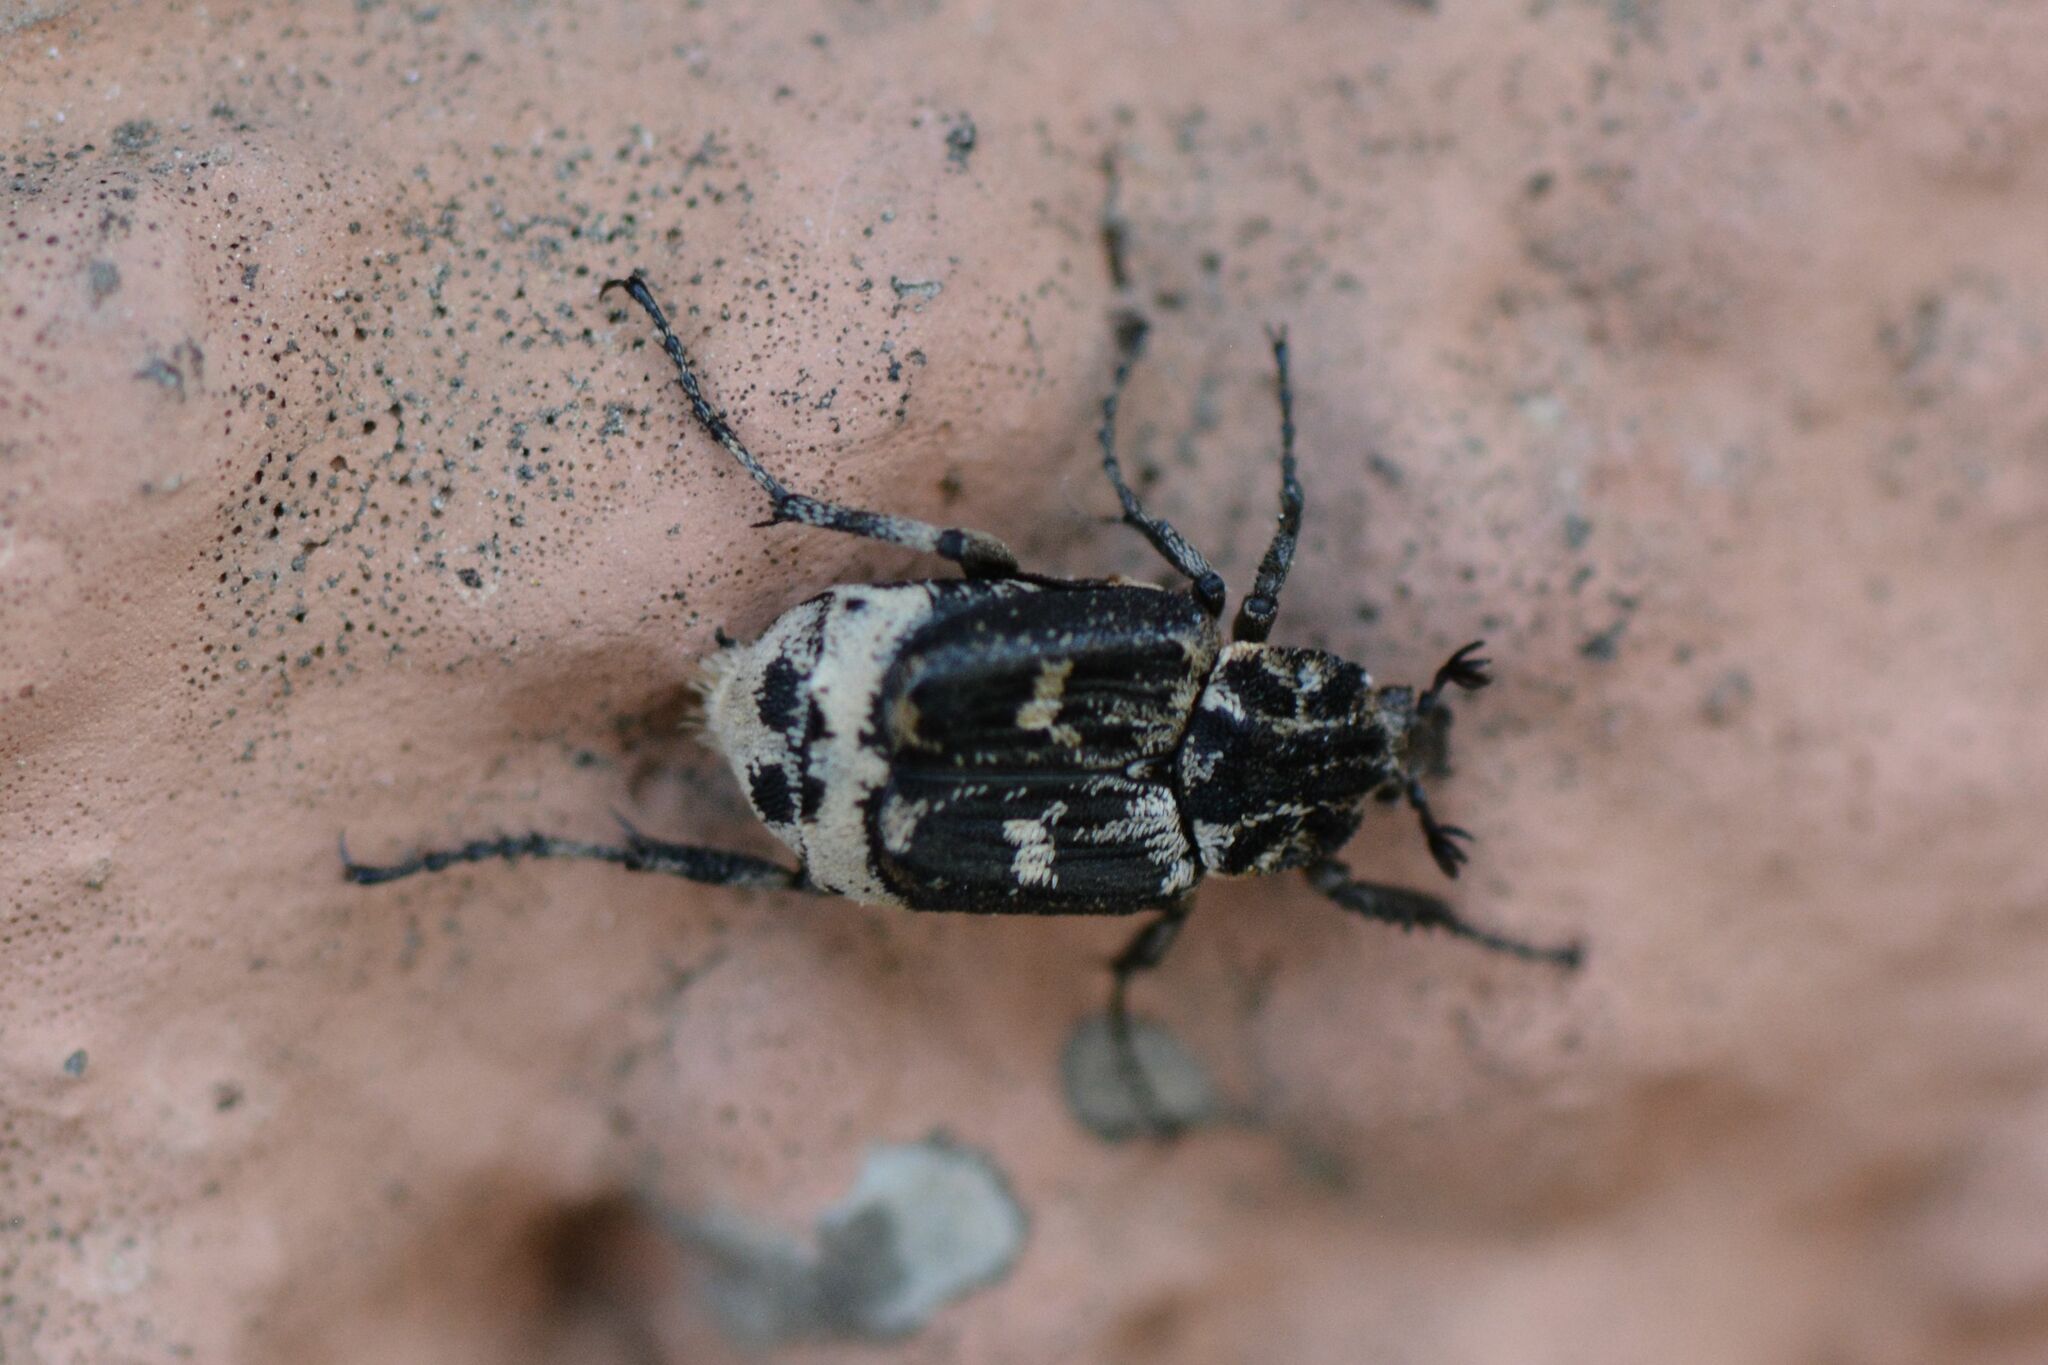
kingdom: Animalia
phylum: Arthropoda
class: Insecta
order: Coleoptera
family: Scarabaeidae
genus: Valgus
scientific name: Valgus hemipterus
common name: Bug flower chafer
